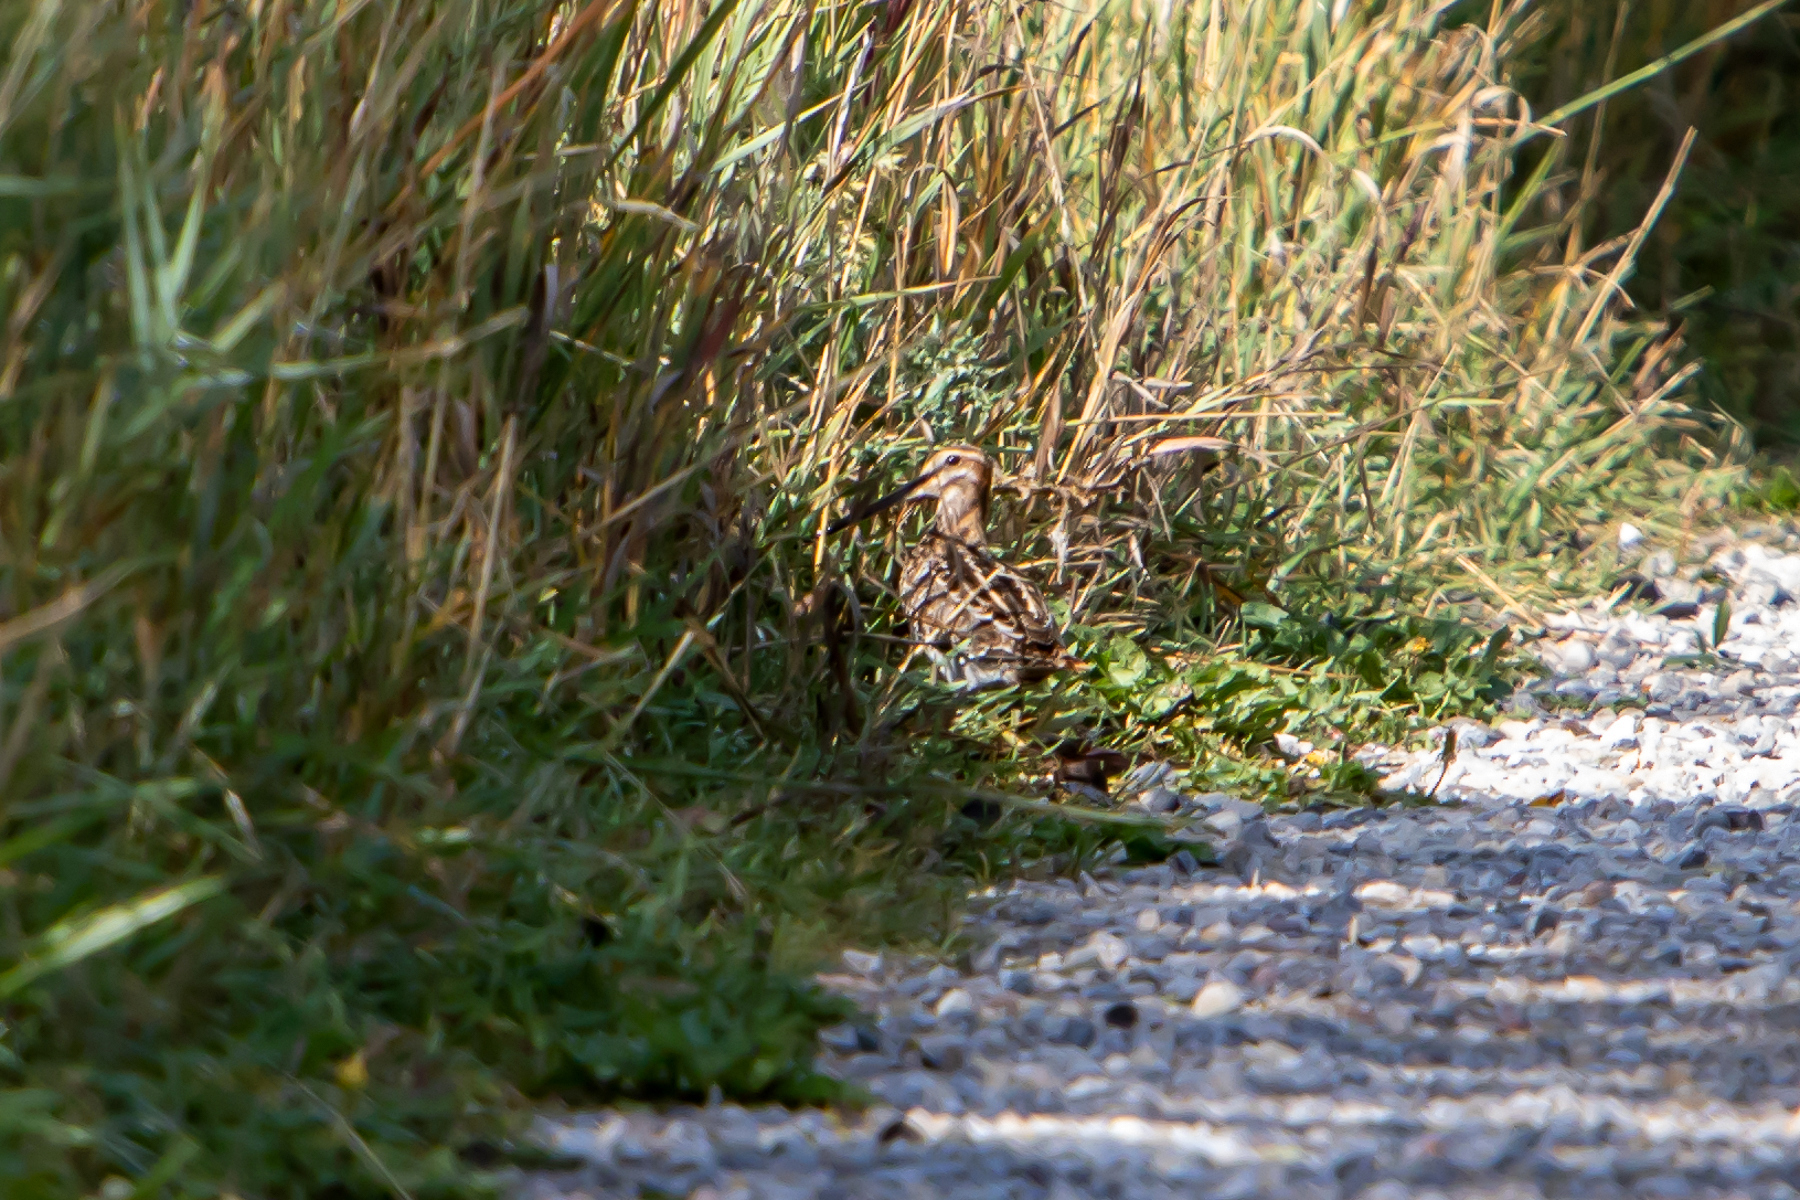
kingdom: Animalia
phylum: Chordata
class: Aves
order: Charadriiformes
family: Scolopacidae
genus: Gallinago
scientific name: Gallinago delicata
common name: Wilson's snipe
